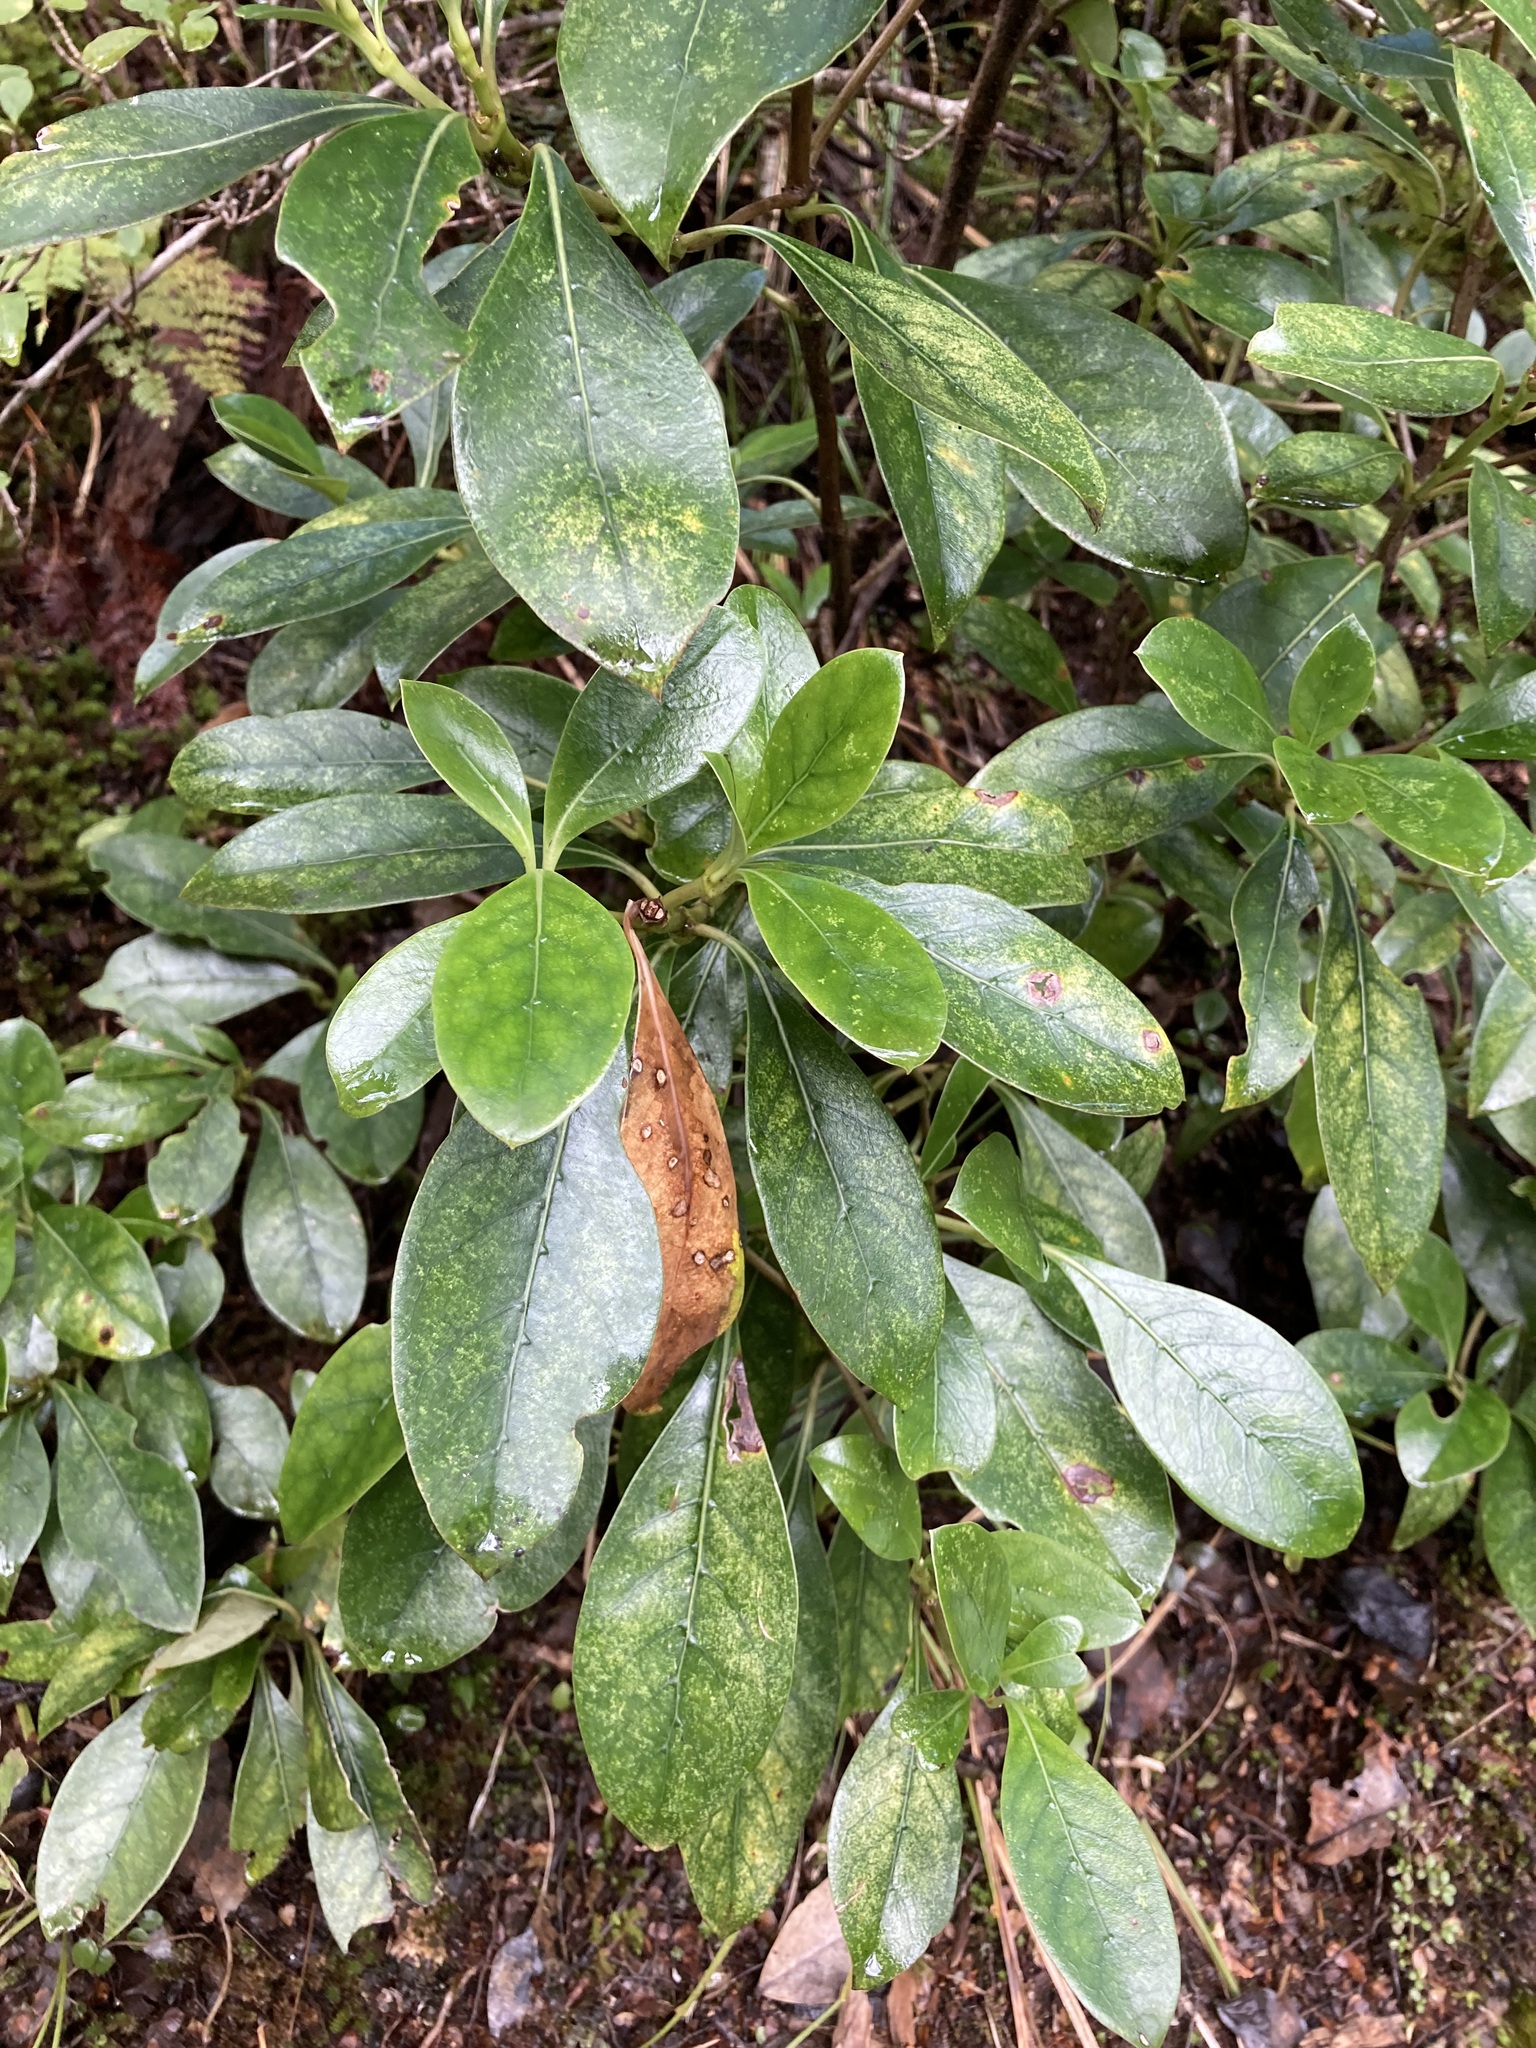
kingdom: Plantae
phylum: Tracheophyta
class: Magnoliopsida
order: Gentianales
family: Rubiaceae
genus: Coprosma
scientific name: Coprosma lucida
